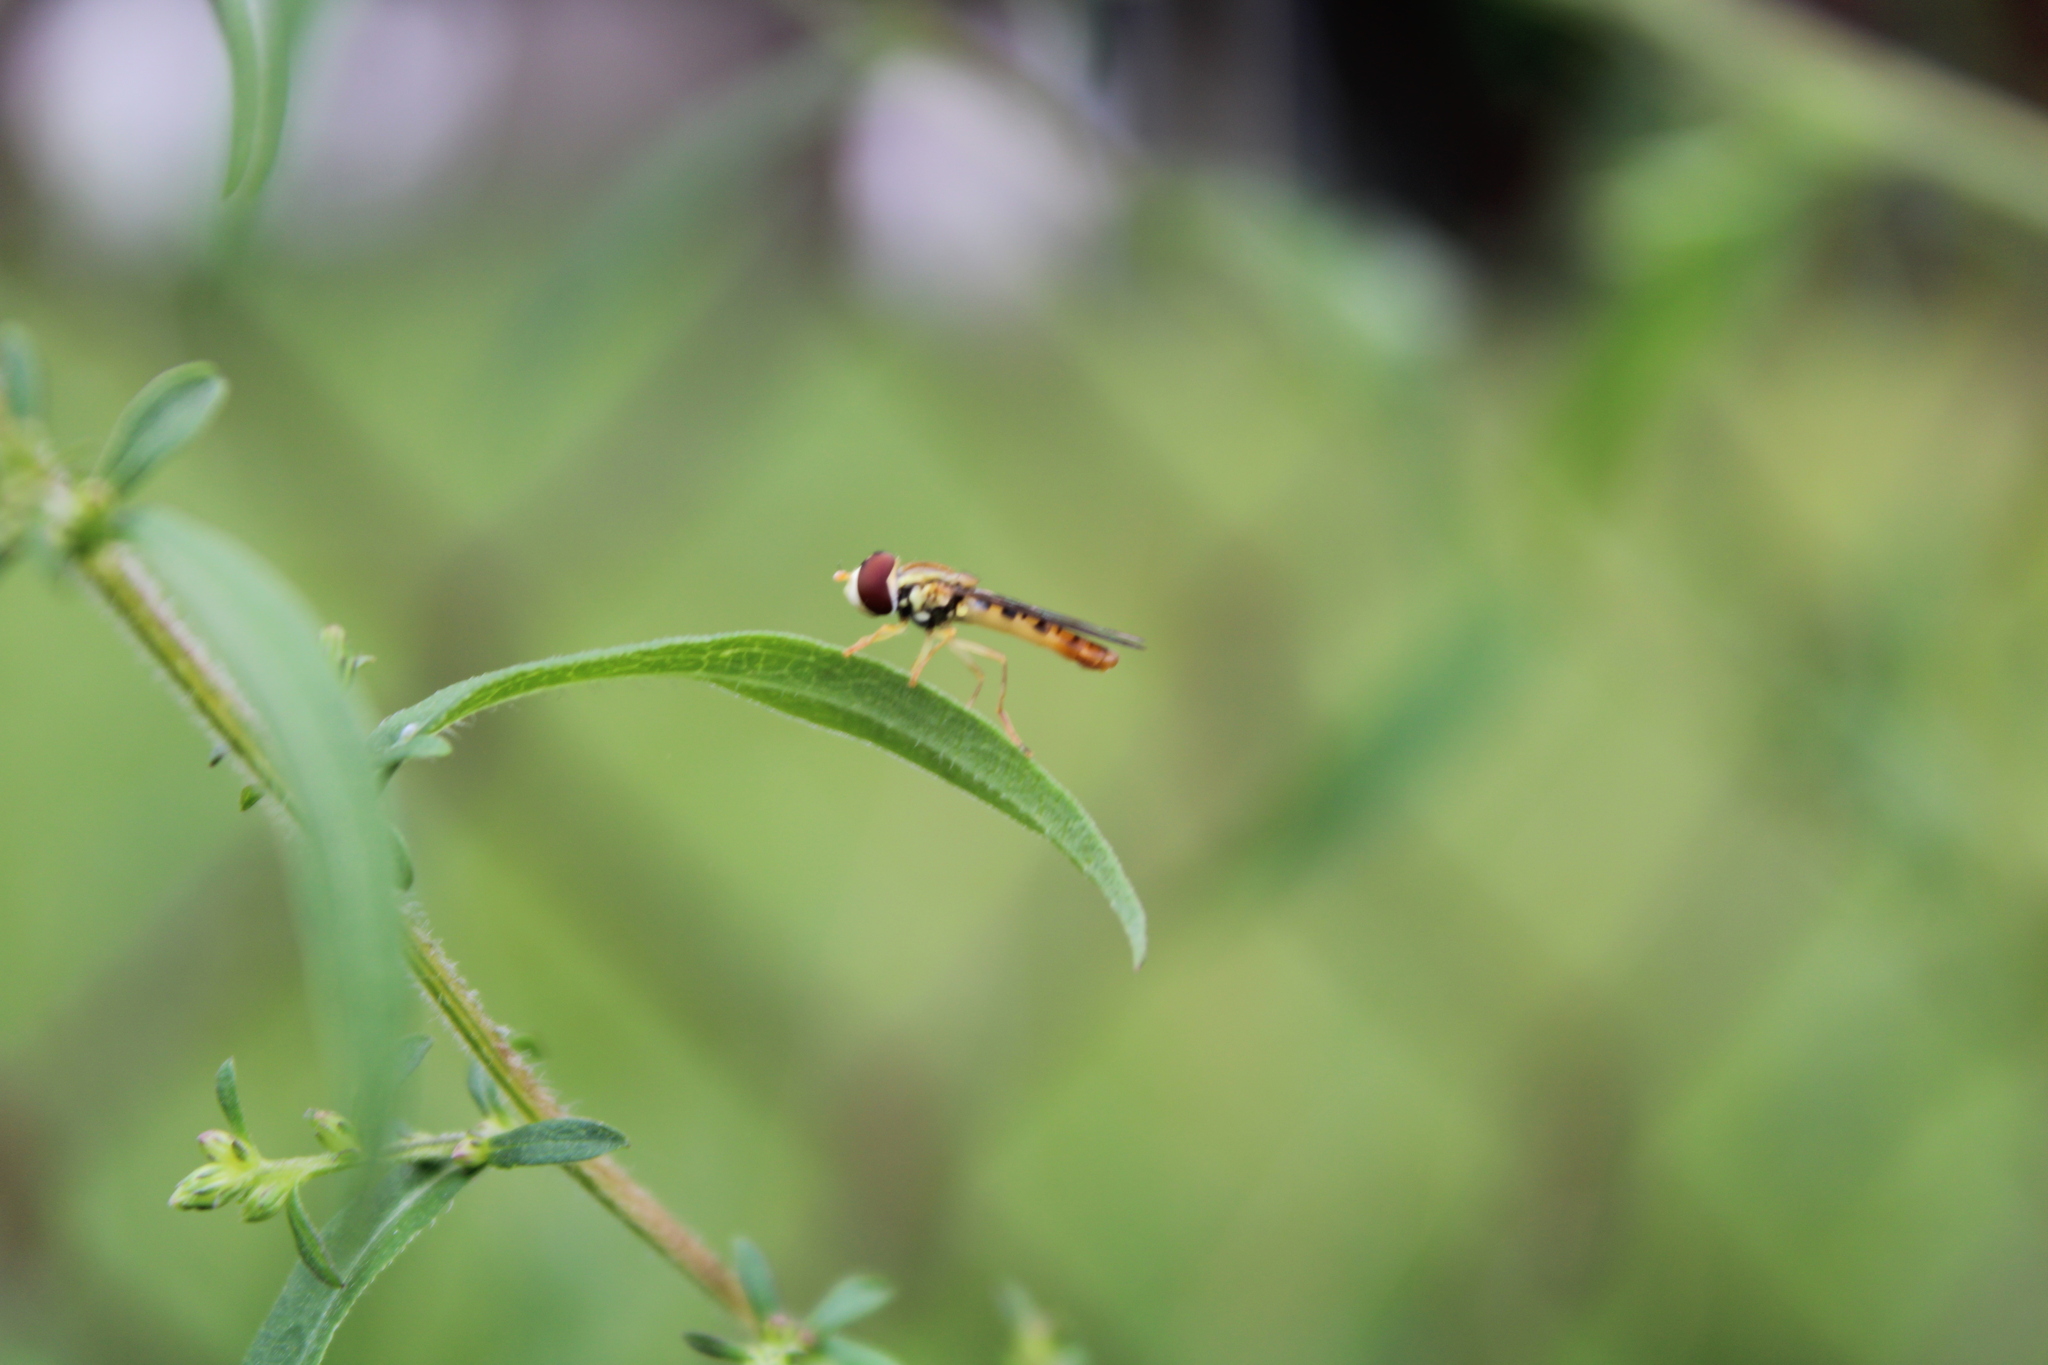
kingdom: Animalia
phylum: Arthropoda
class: Insecta
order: Diptera
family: Syrphidae
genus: Toxomerus
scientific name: Toxomerus politus
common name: Maize calligrapher
